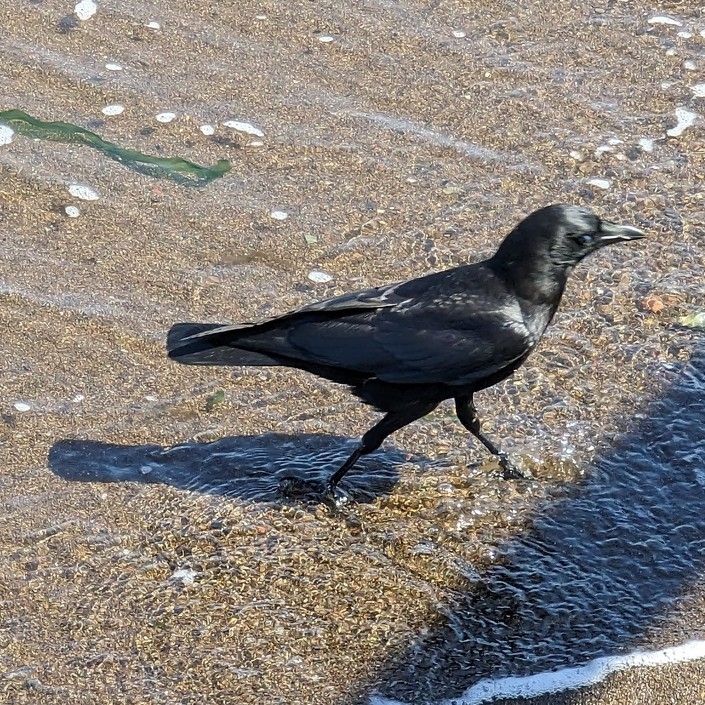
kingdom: Animalia
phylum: Chordata
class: Aves
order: Passeriformes
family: Corvidae
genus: Corvus
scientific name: Corvus brachyrhynchos
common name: American crow
